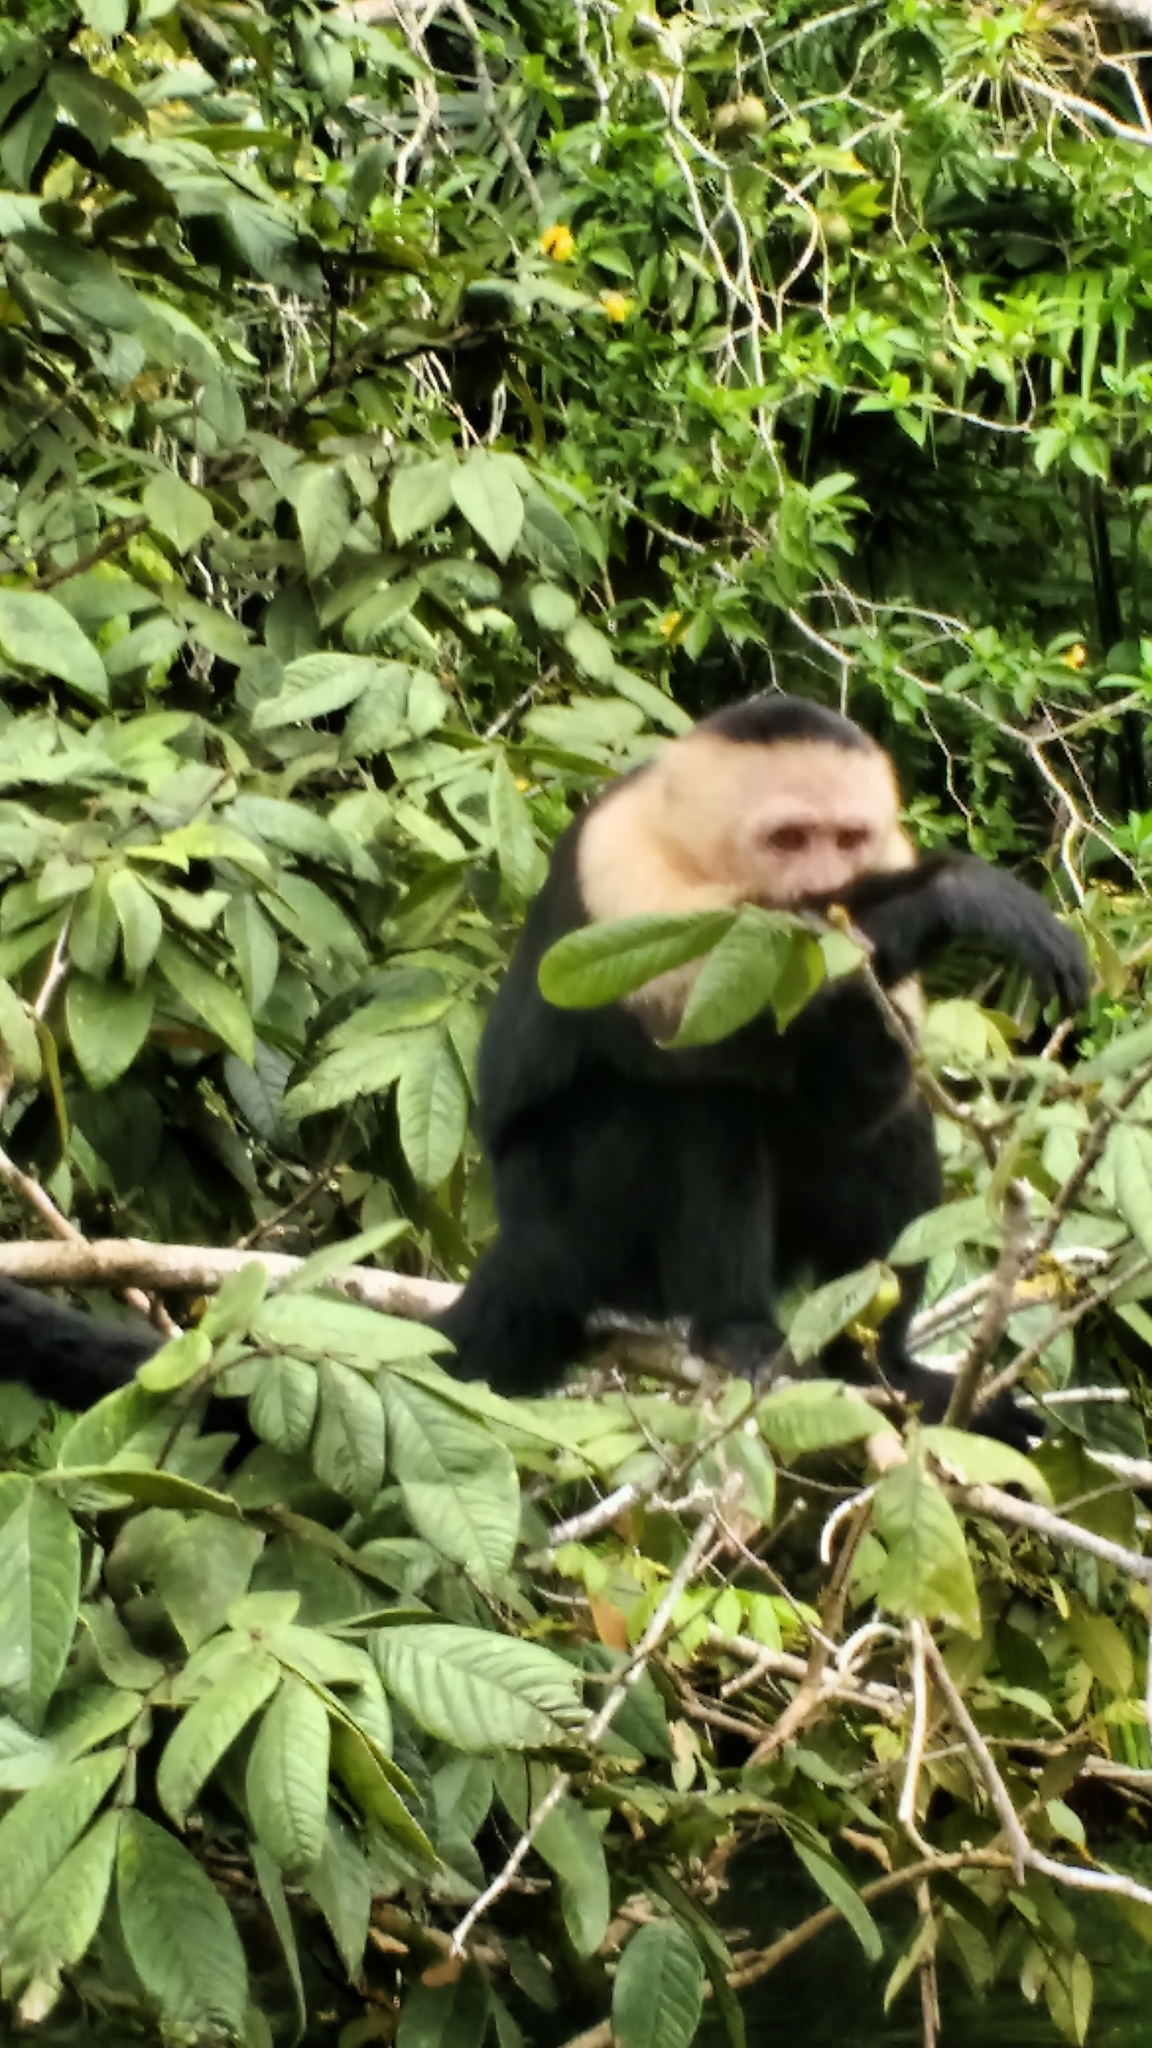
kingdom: Animalia
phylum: Chordata
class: Mammalia
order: Primates
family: Cebidae
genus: Cebus
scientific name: Cebus imitator
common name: Panamanian white-faced capuchin
